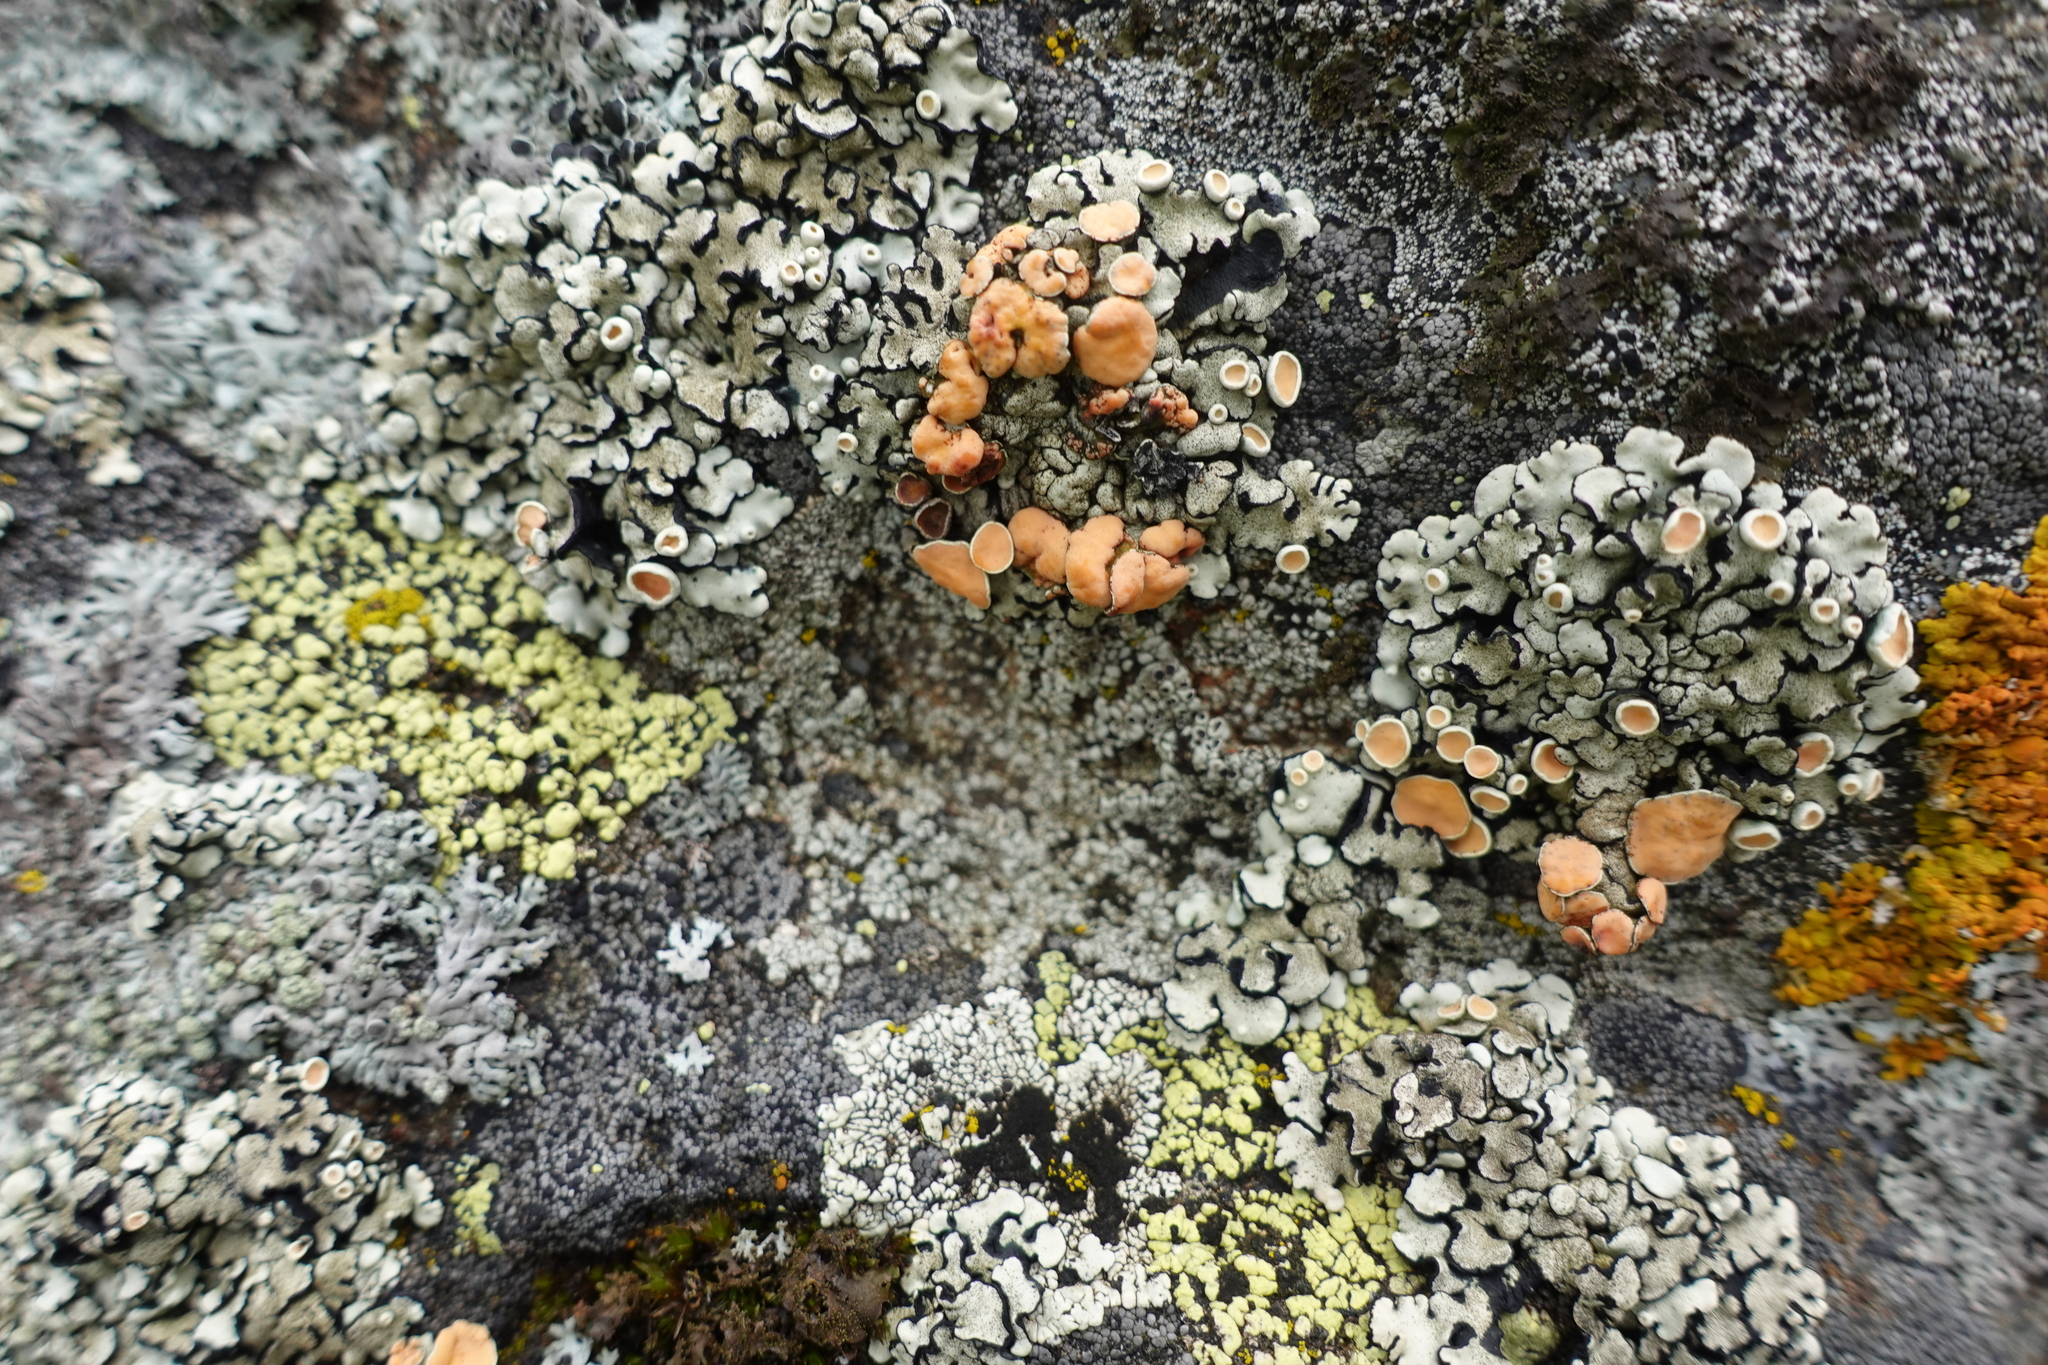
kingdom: Fungi
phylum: Ascomycota
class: Lecanoromycetes
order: Lecanorales
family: Lecanoraceae
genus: Omphalodina
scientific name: Omphalodina chrysoleuca
